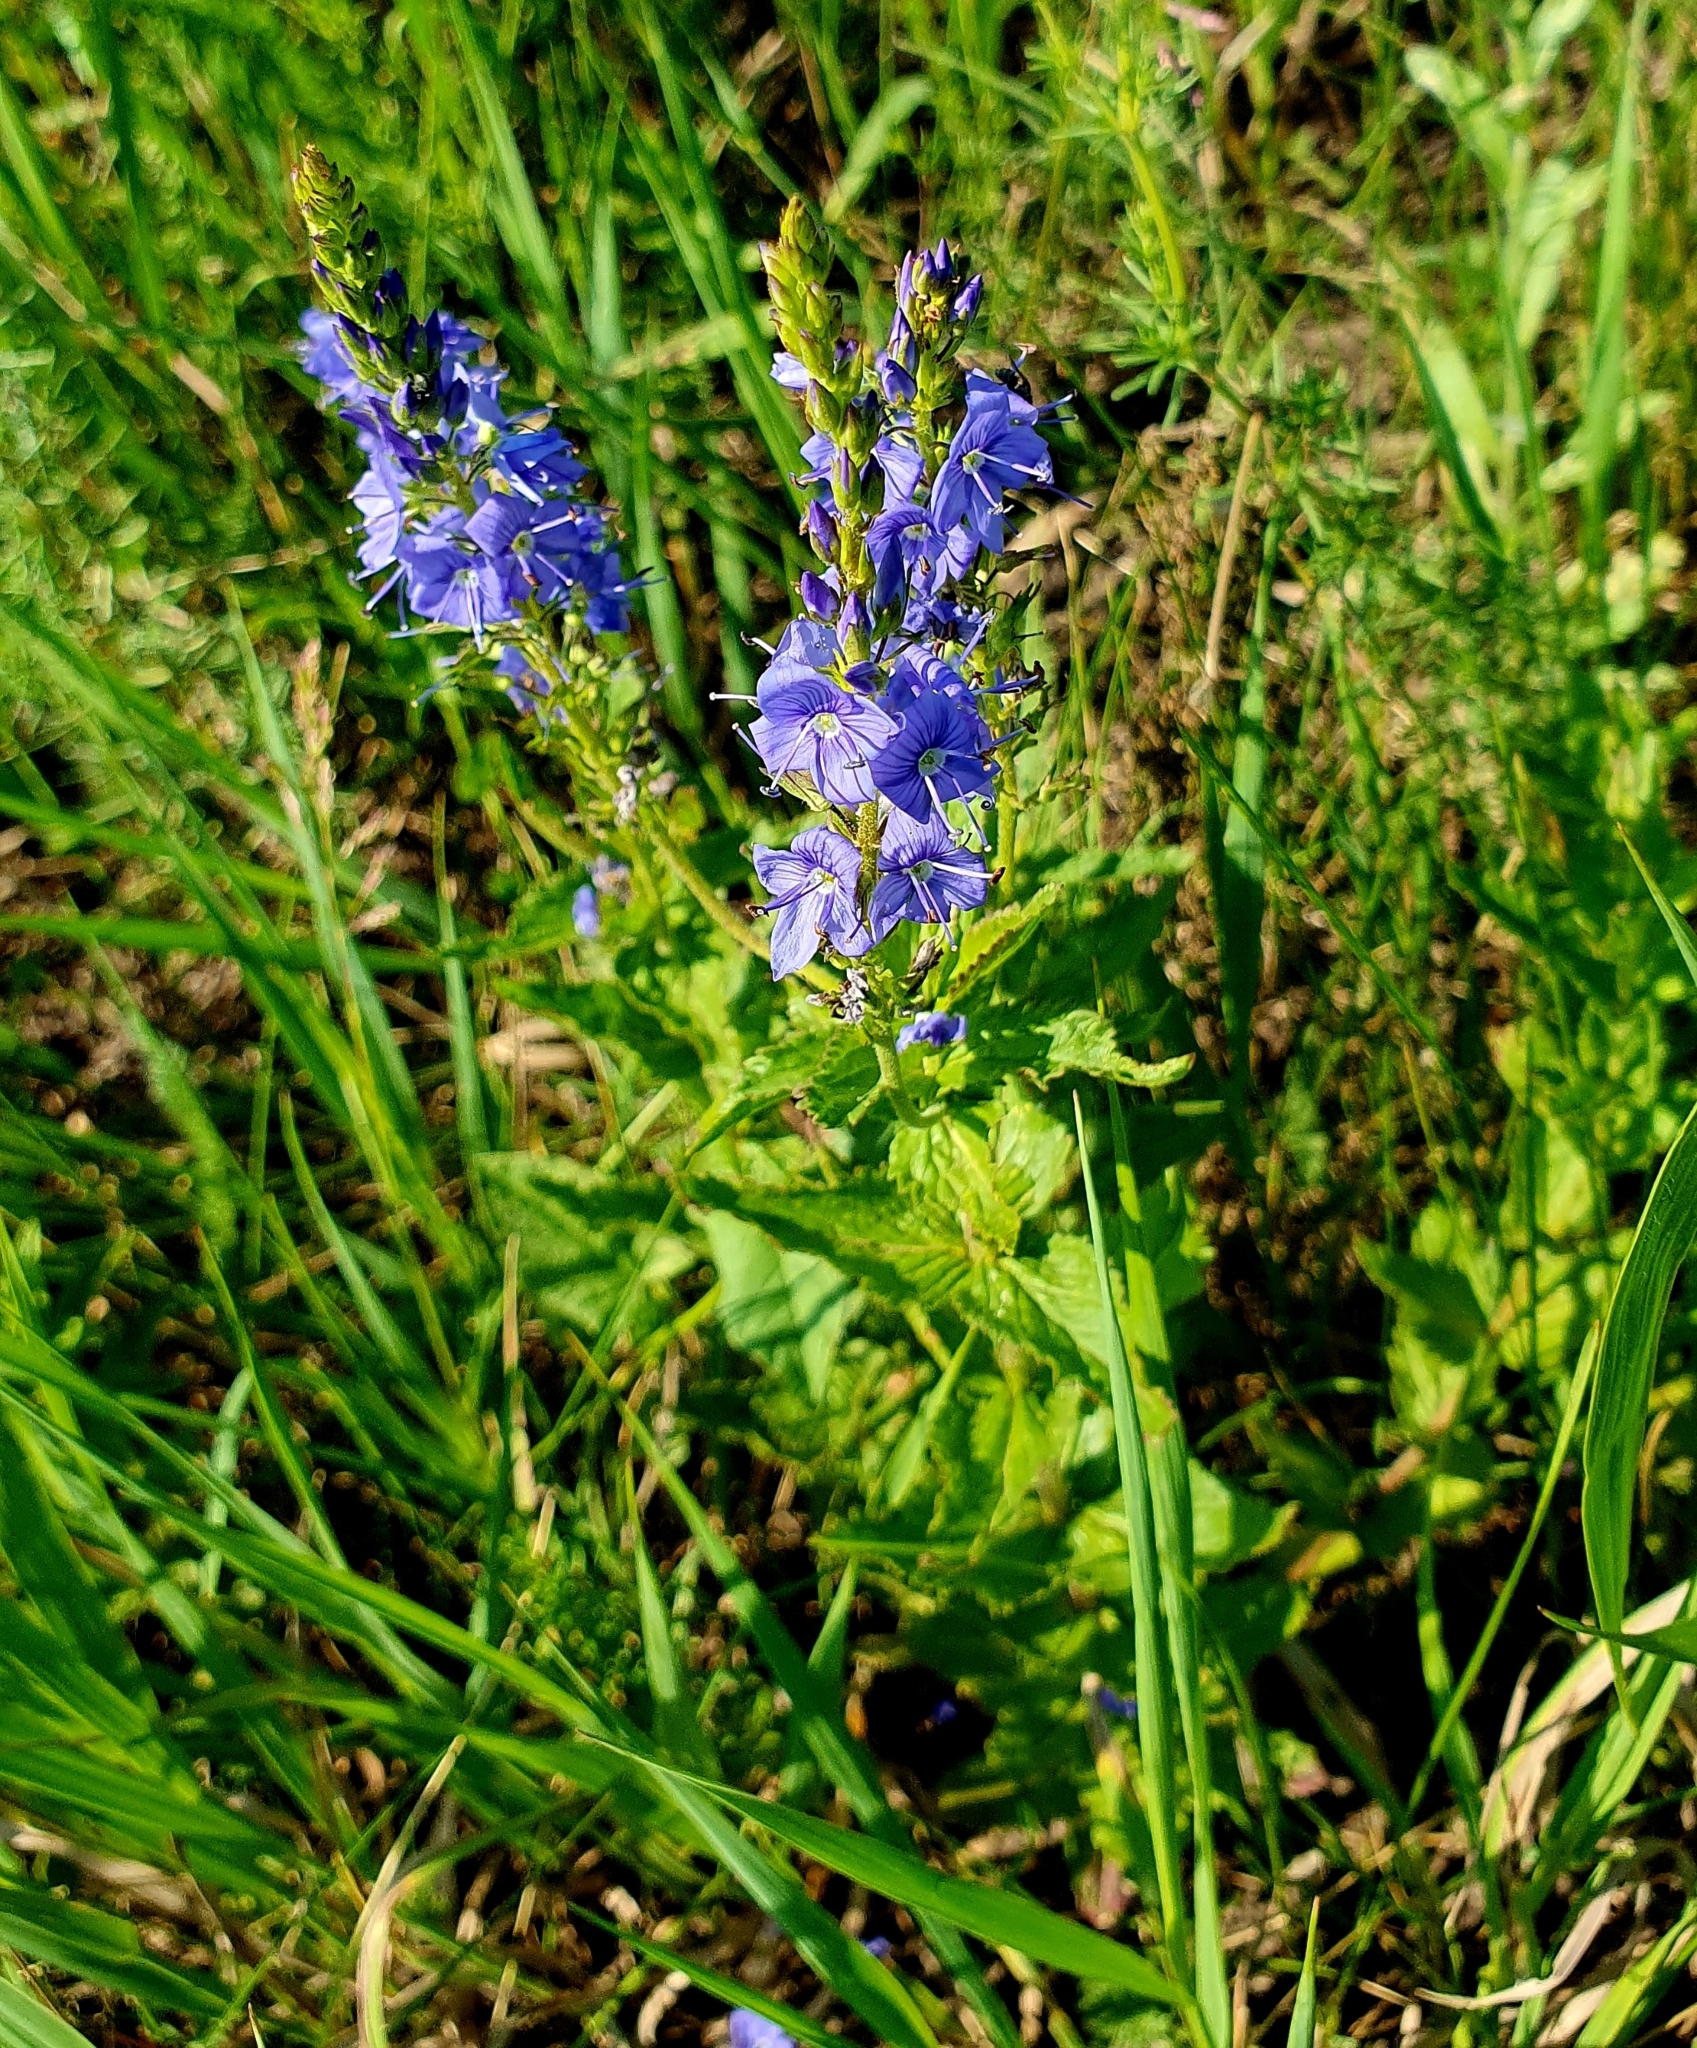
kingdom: Plantae
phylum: Tracheophyta
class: Magnoliopsida
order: Lamiales
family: Plantaginaceae
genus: Veronica
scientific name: Veronica teucrium
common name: Large speedwell
